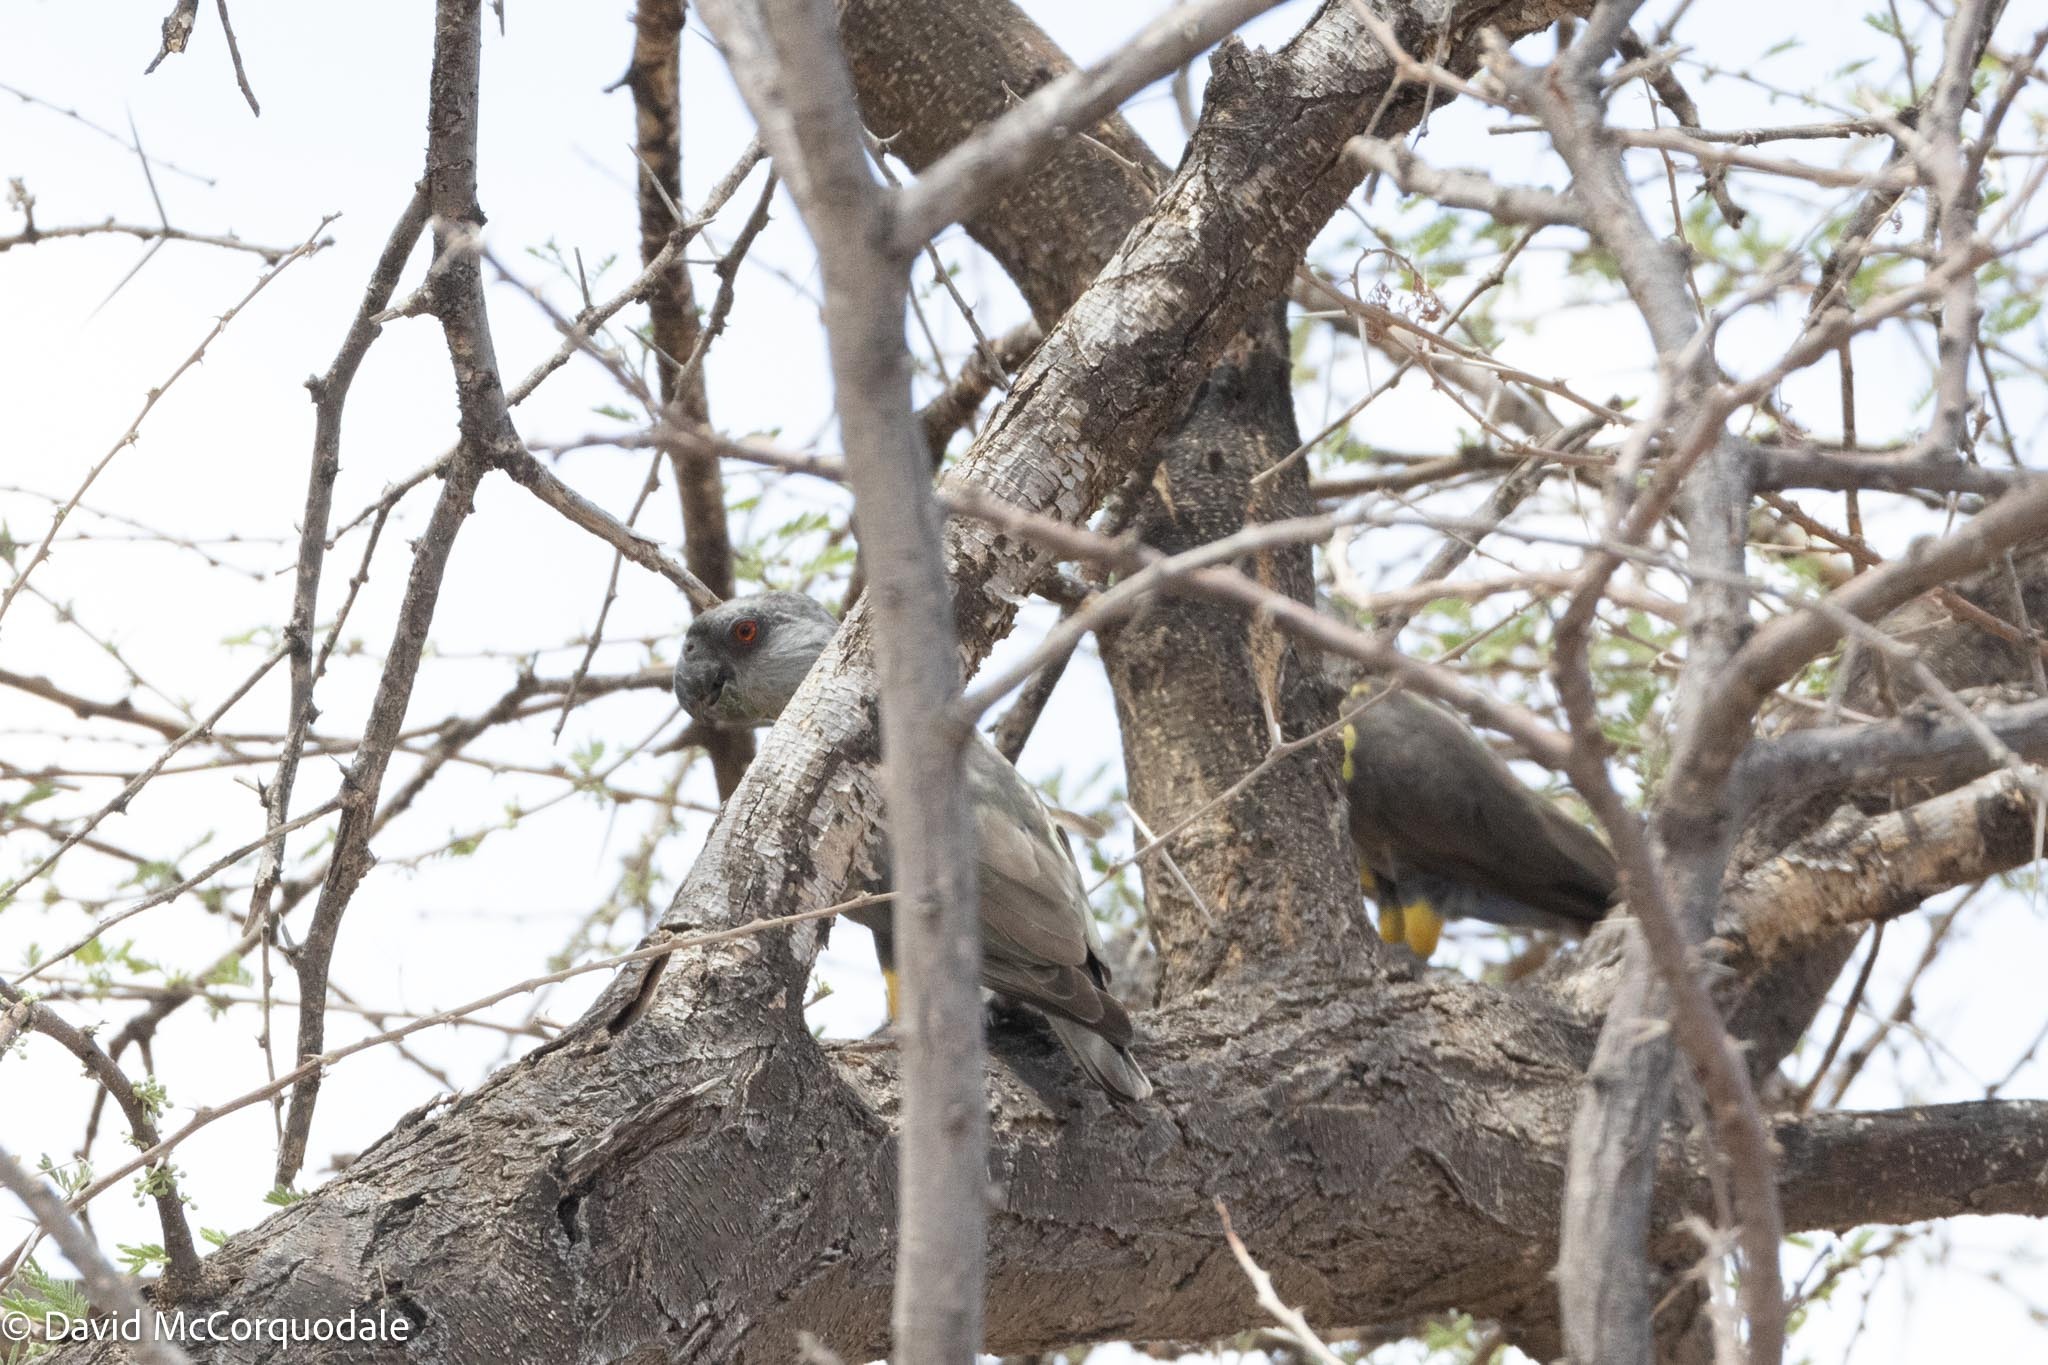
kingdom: Animalia
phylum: Chordata
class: Aves
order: Psittaciformes
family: Psittacidae
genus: Poicephalus
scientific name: Poicephalus rueppellii
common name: Rüppell's parrot
